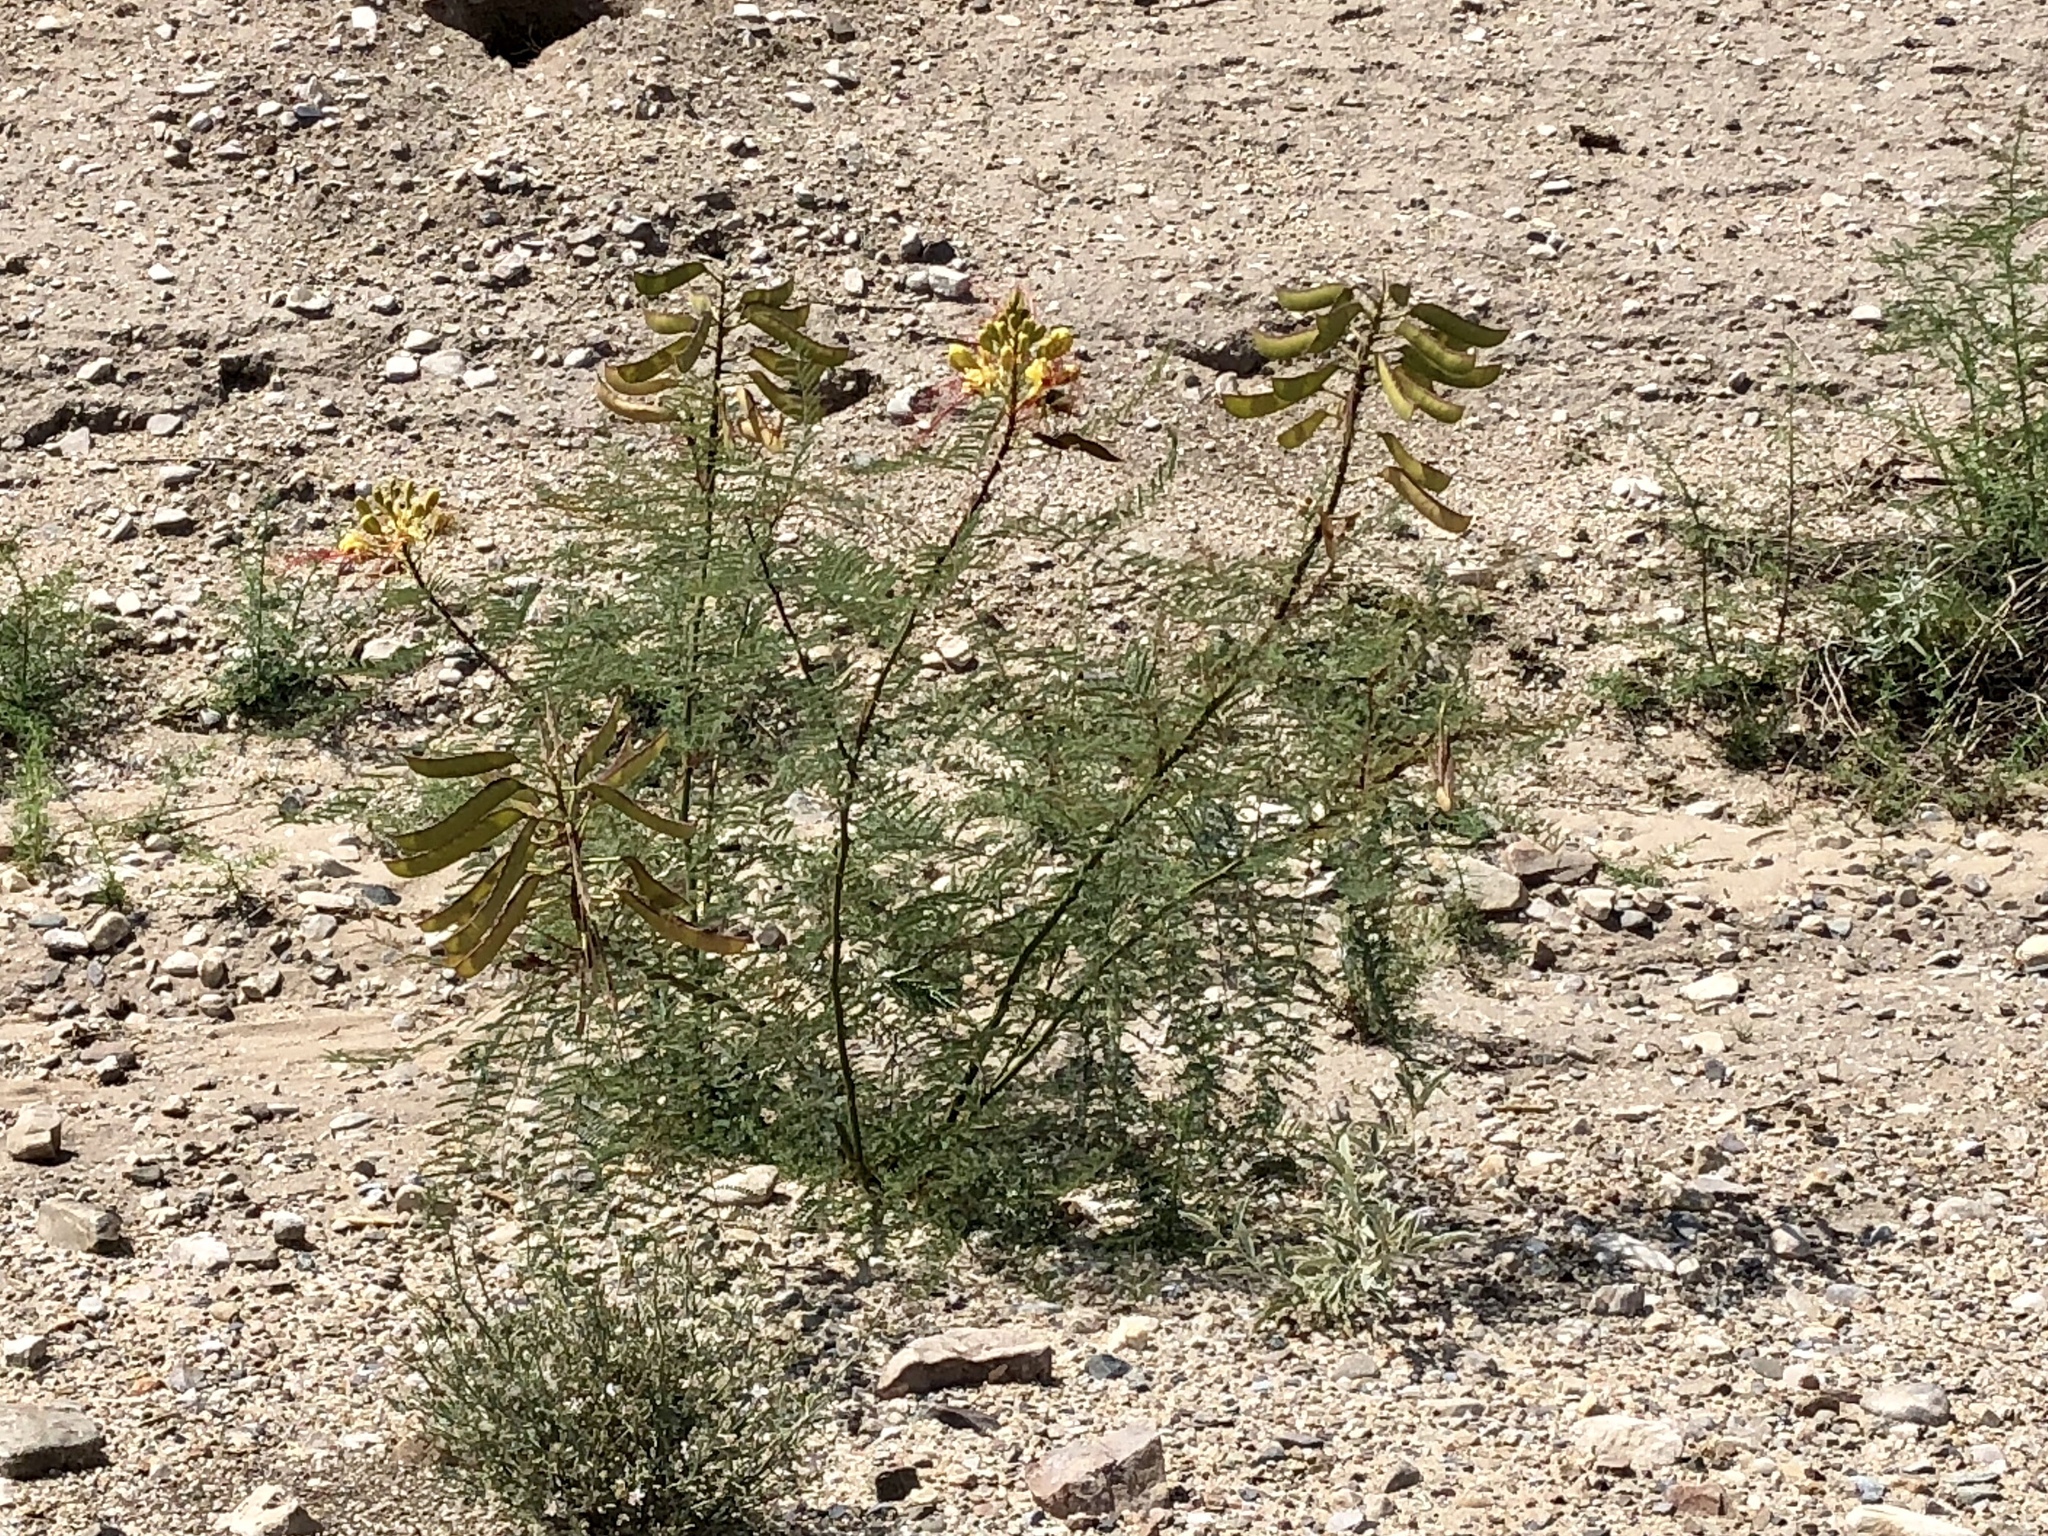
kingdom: Plantae
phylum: Tracheophyta
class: Magnoliopsida
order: Fabales
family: Fabaceae
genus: Erythrostemon
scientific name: Erythrostemon gilliesii
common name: Bird-of-paradise shrub
